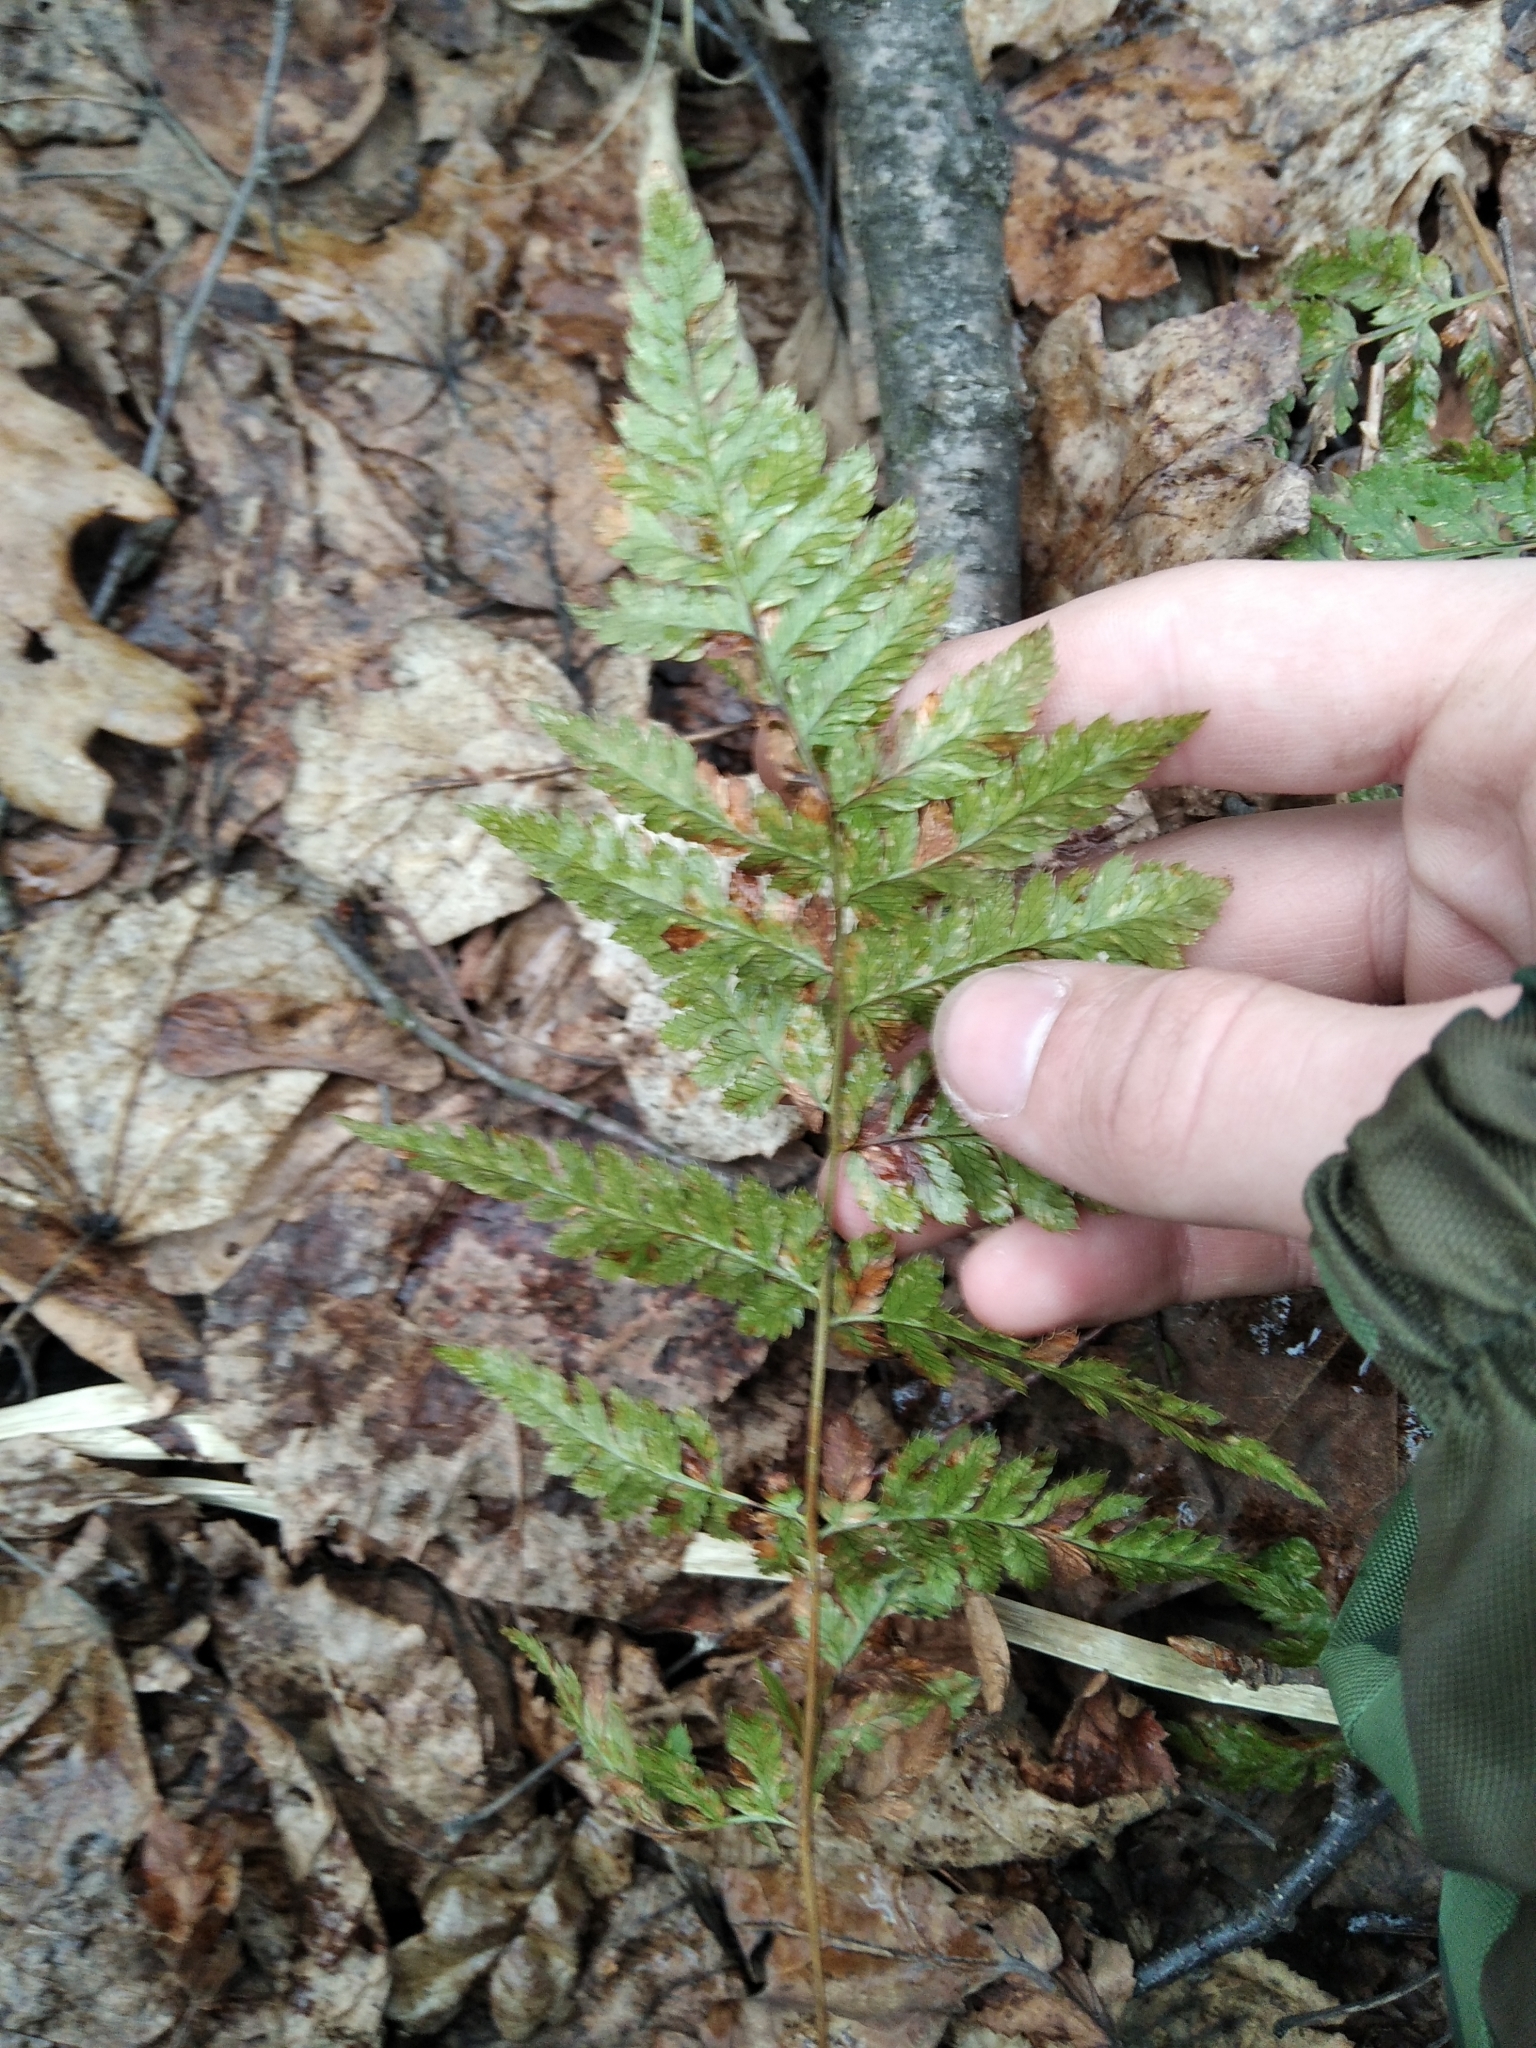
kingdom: Plantae
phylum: Tracheophyta
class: Polypodiopsida
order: Polypodiales
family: Dryopteridaceae
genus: Dryopteris
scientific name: Dryopteris carthusiana
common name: Narrow buckler-fern
